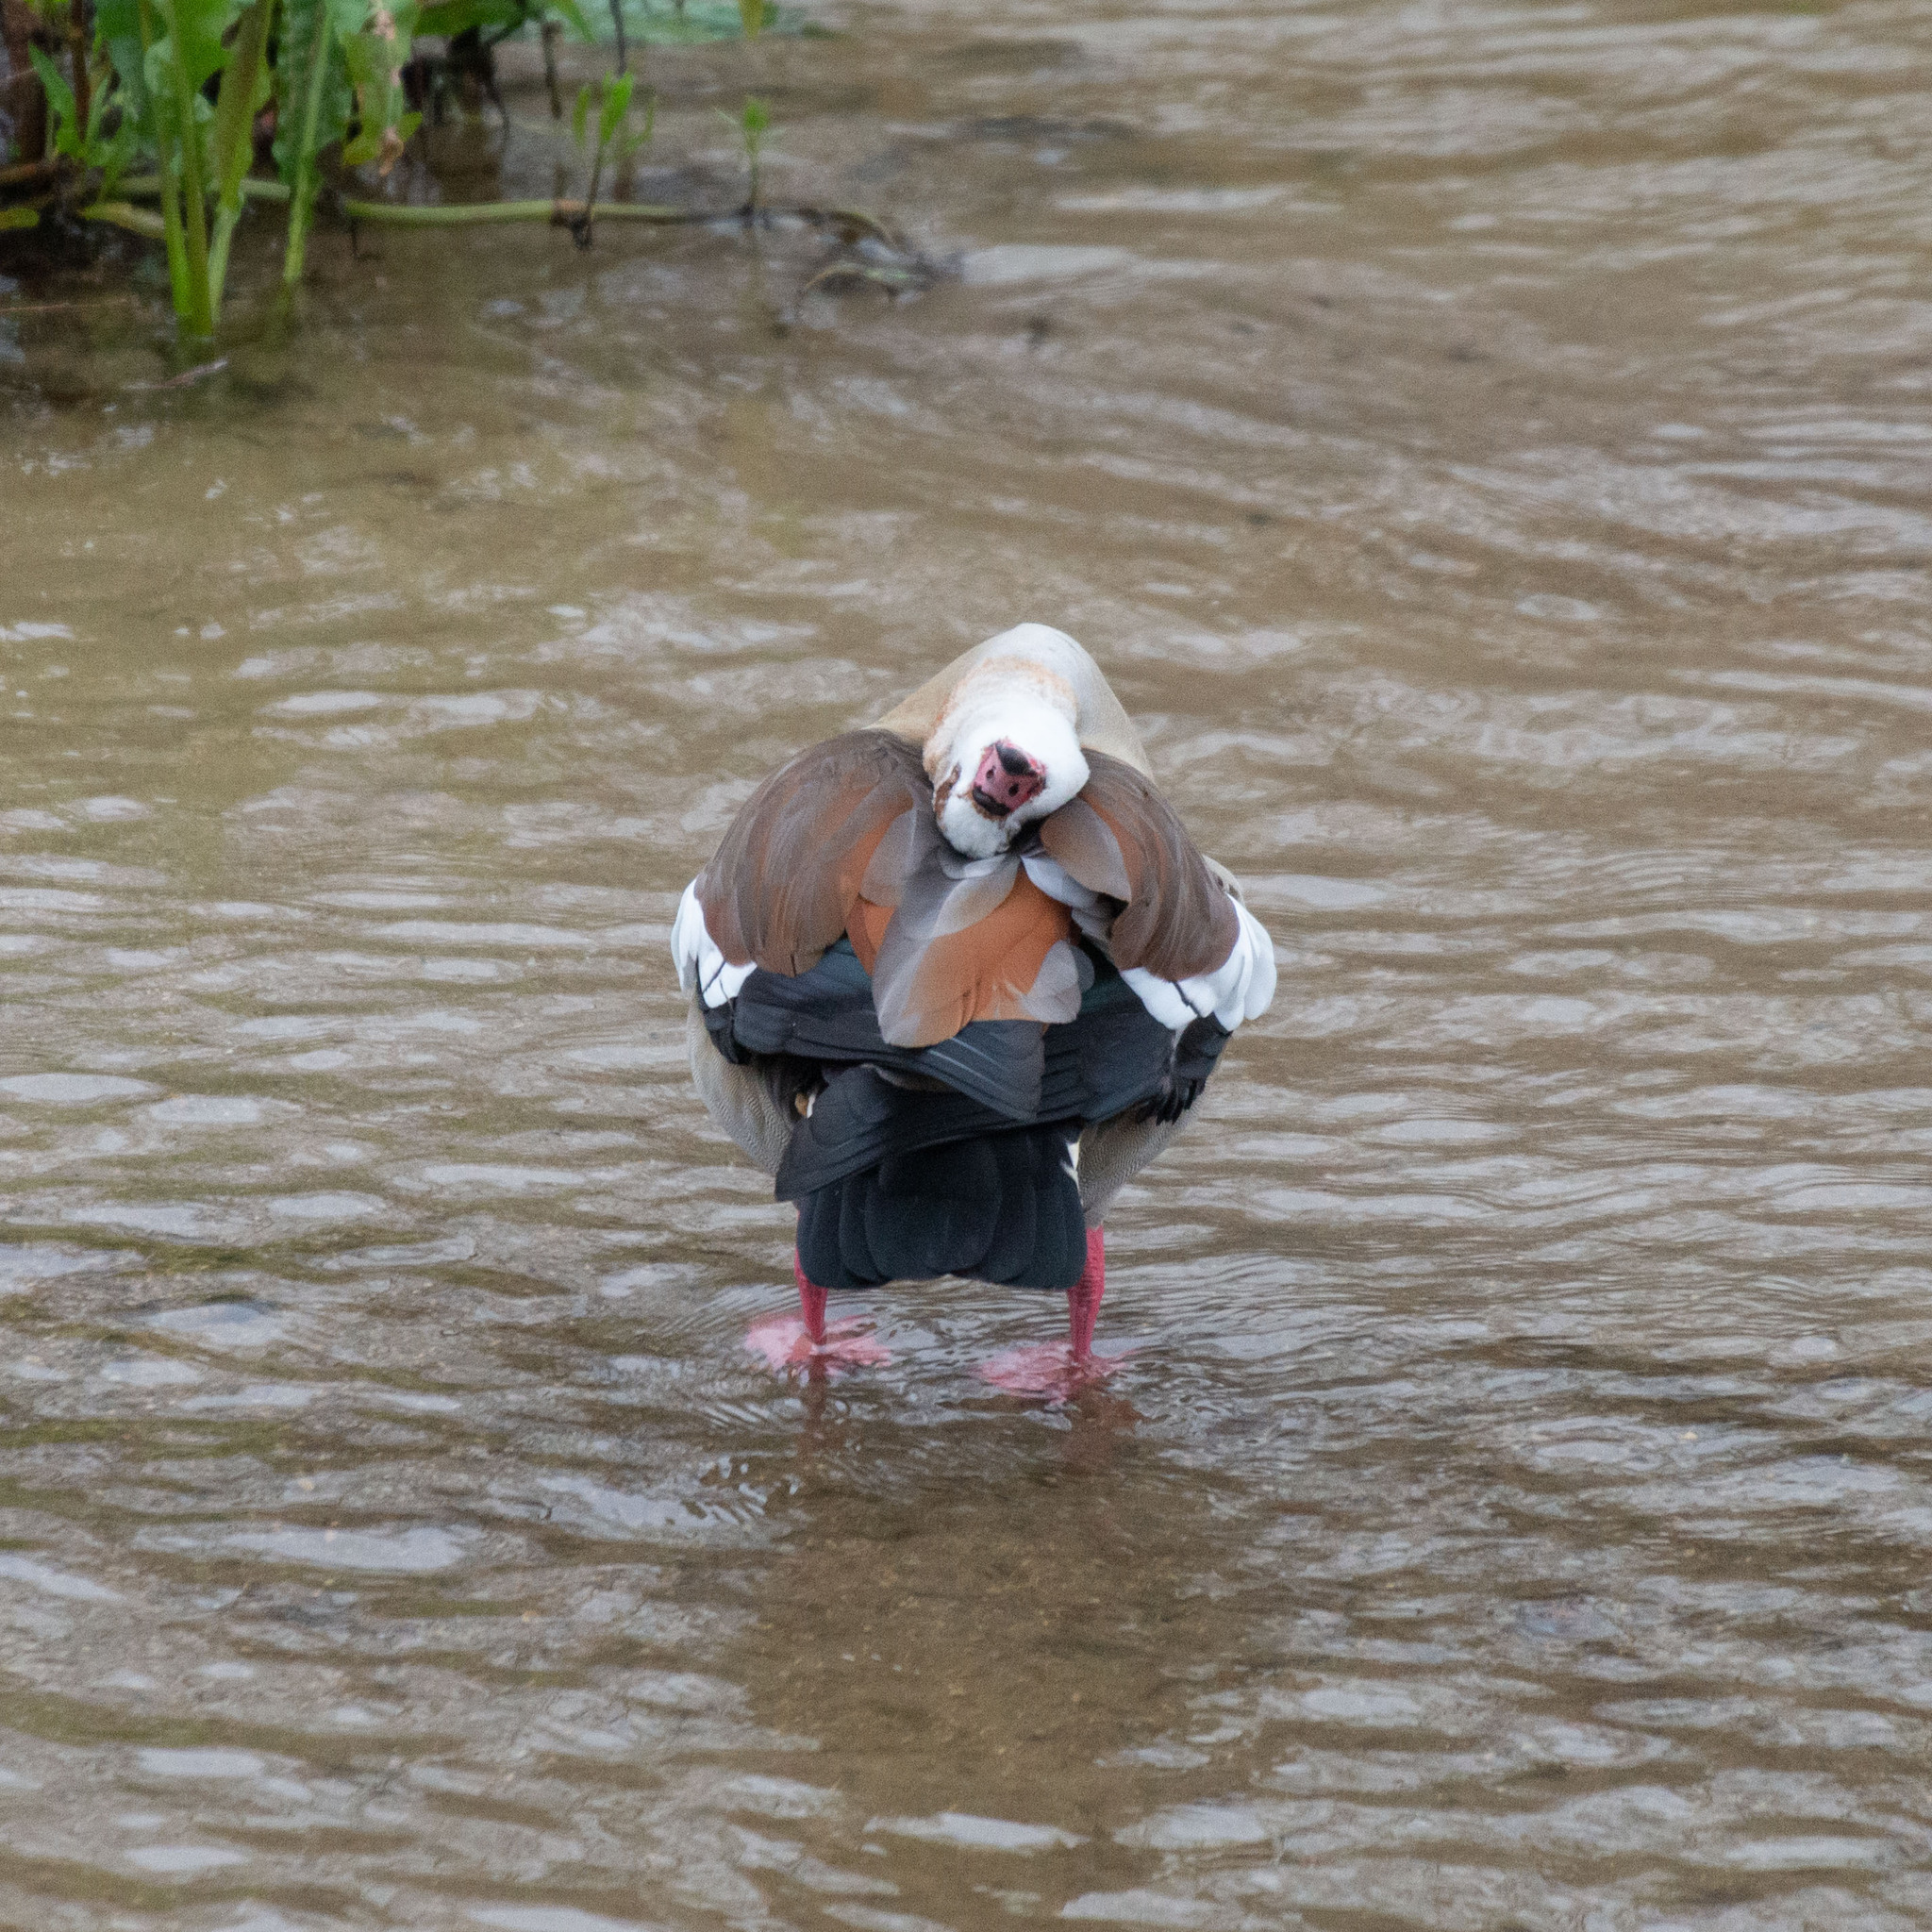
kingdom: Animalia
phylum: Chordata
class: Aves
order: Anseriformes
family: Anatidae
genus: Alopochen
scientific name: Alopochen aegyptiaca
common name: Egyptian goose
